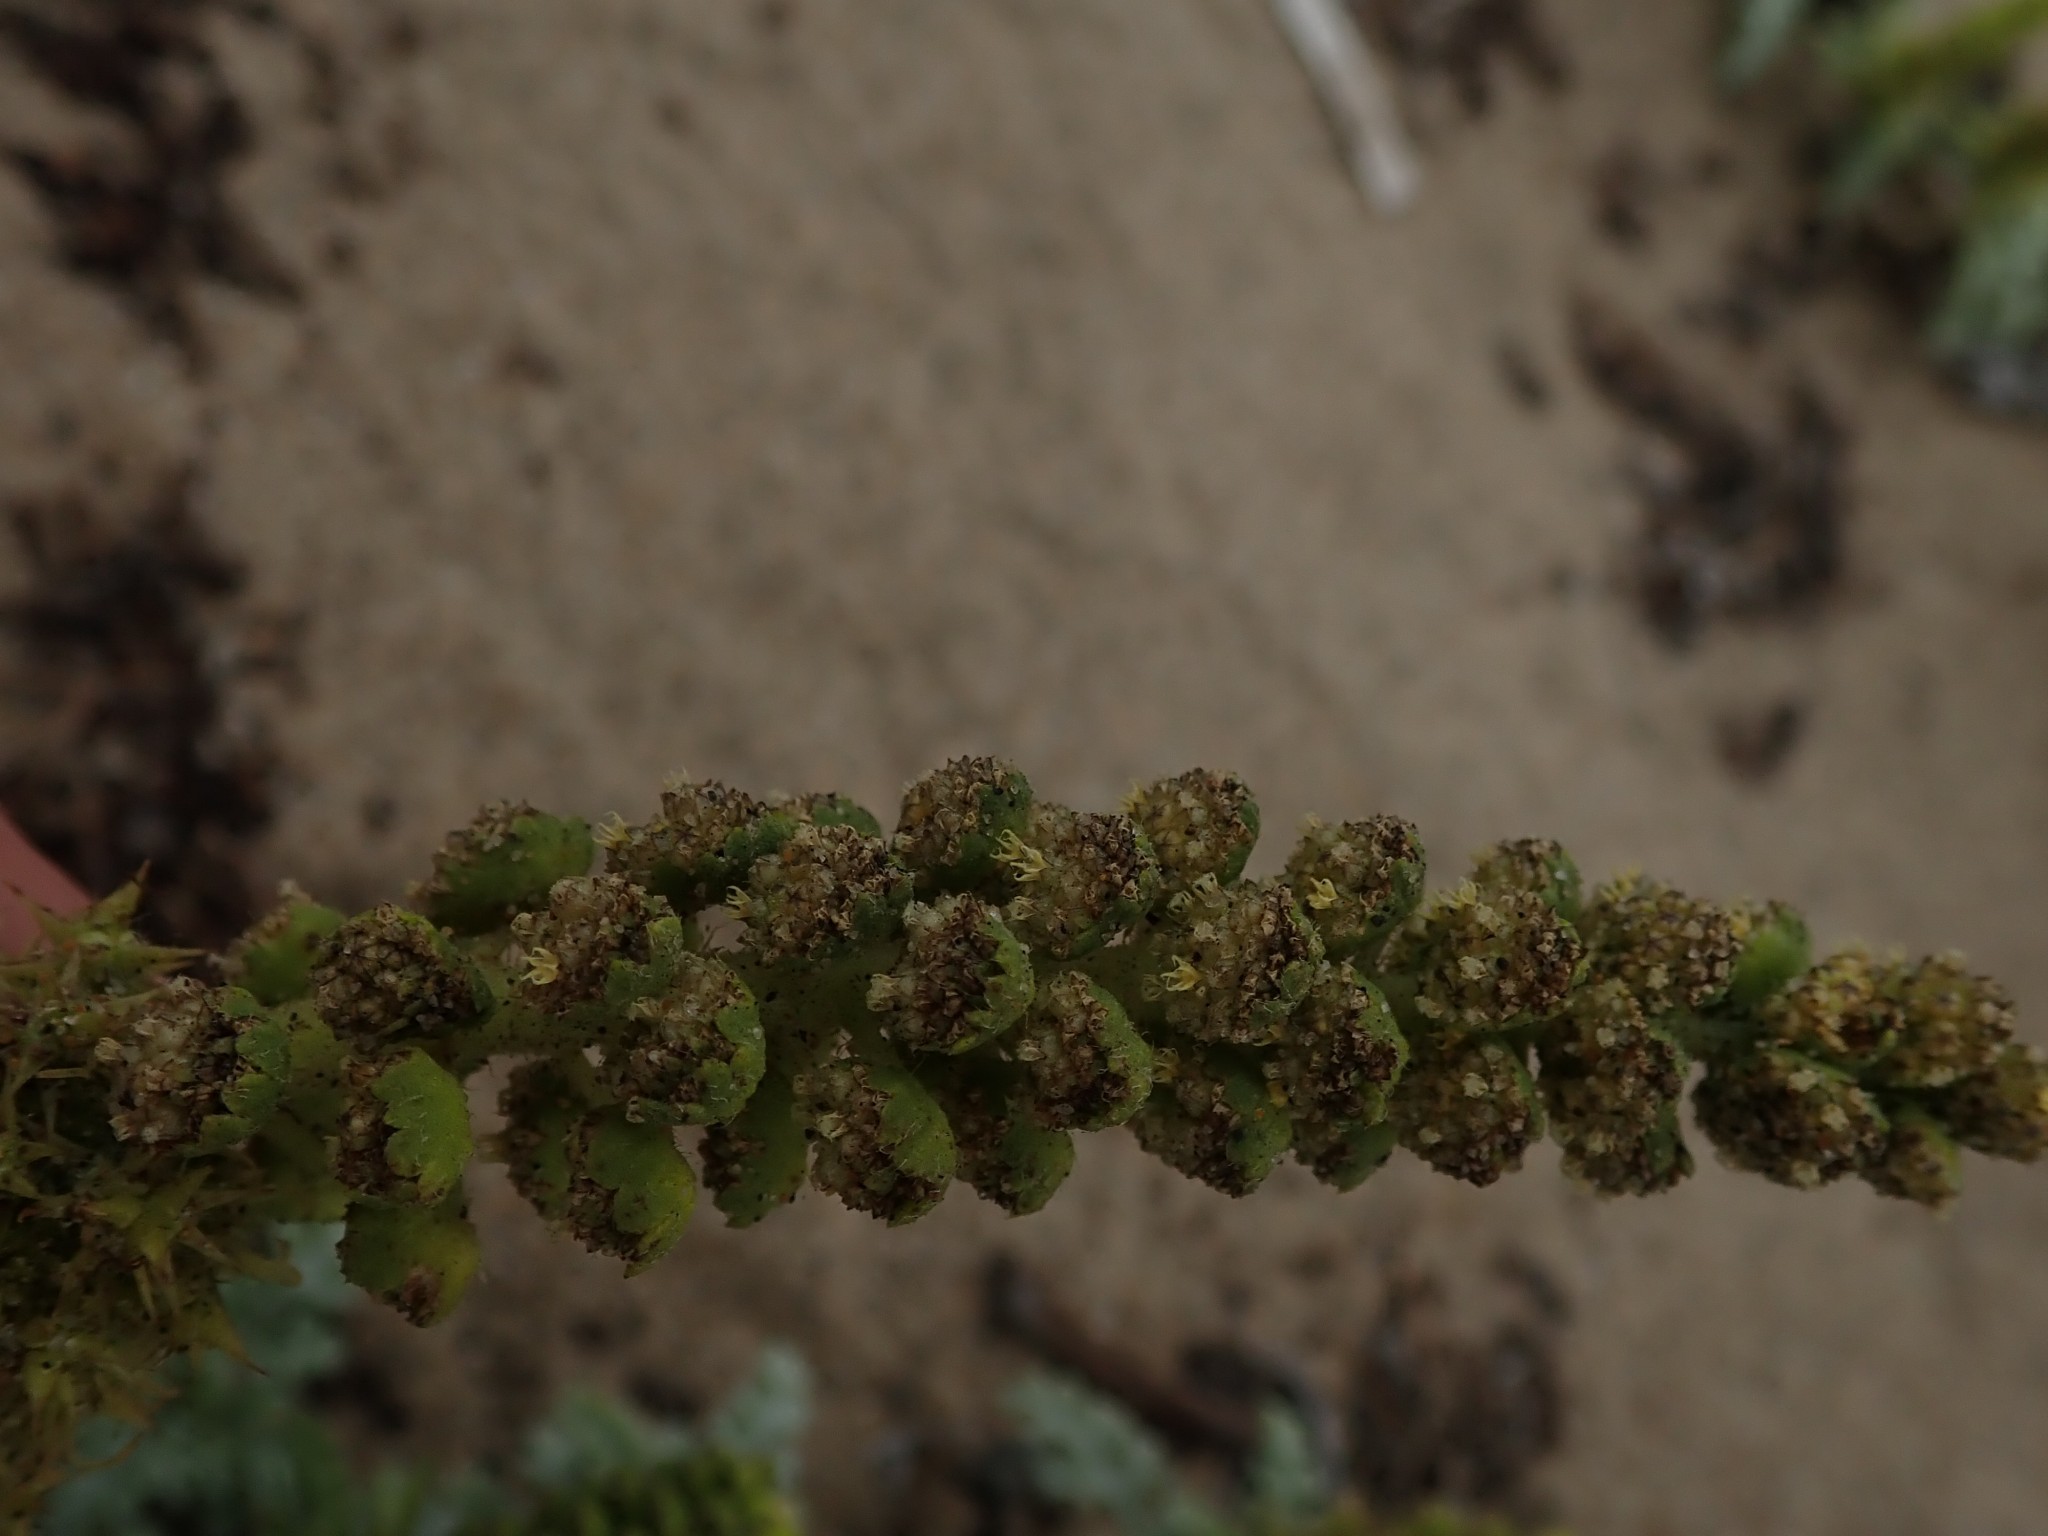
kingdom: Plantae
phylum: Tracheophyta
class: Magnoliopsida
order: Asterales
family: Asteraceae
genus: Ambrosia
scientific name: Ambrosia chamissonis
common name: Beachbur
